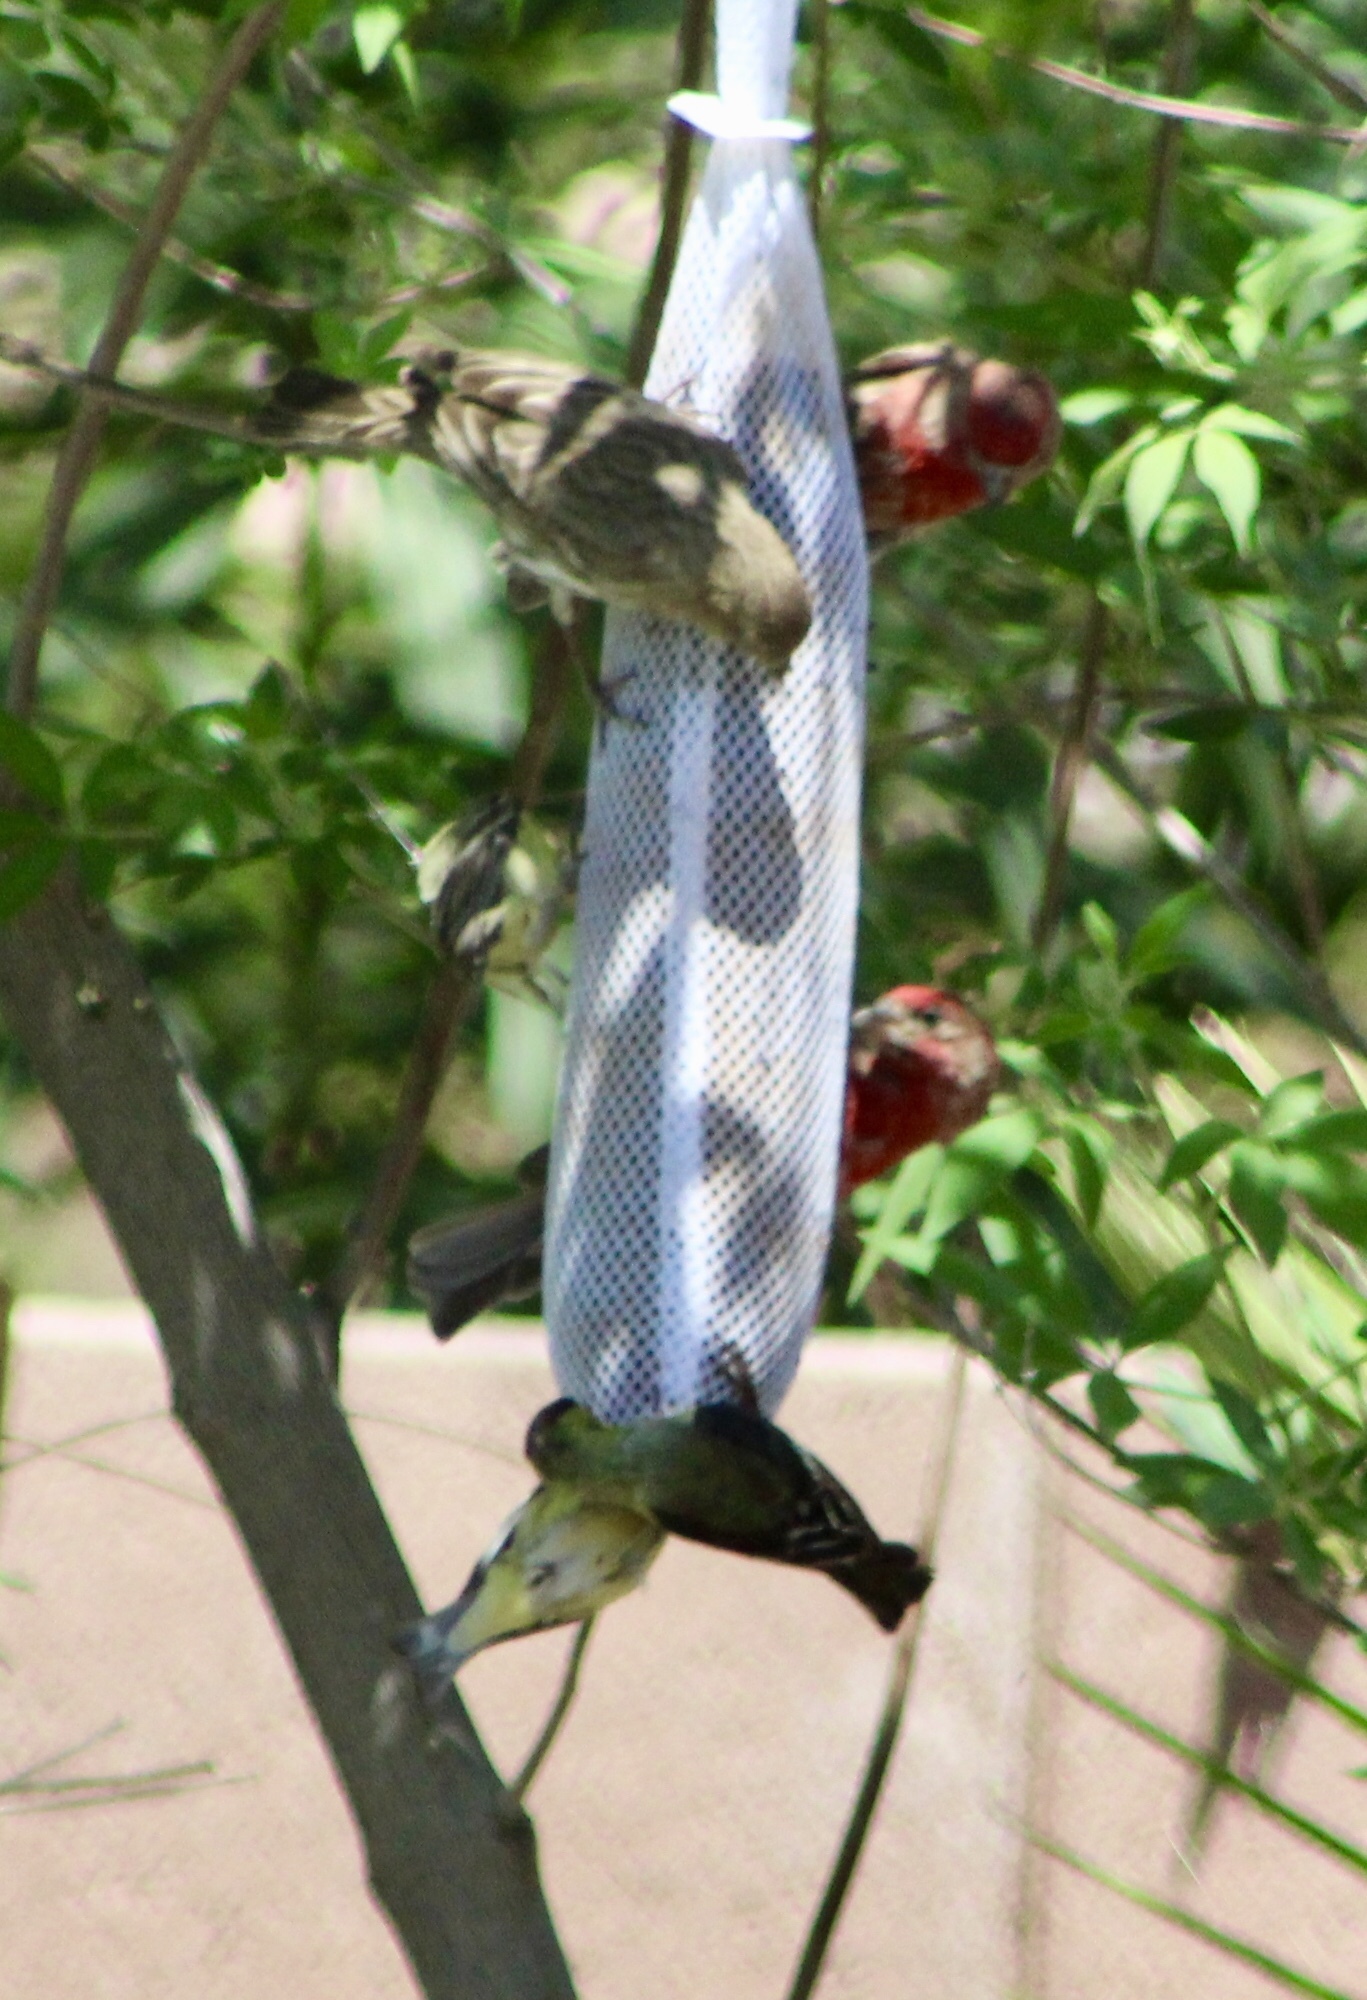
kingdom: Animalia
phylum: Chordata
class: Aves
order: Passeriformes
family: Fringillidae
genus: Haemorhous
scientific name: Haemorhous mexicanus
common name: House finch
